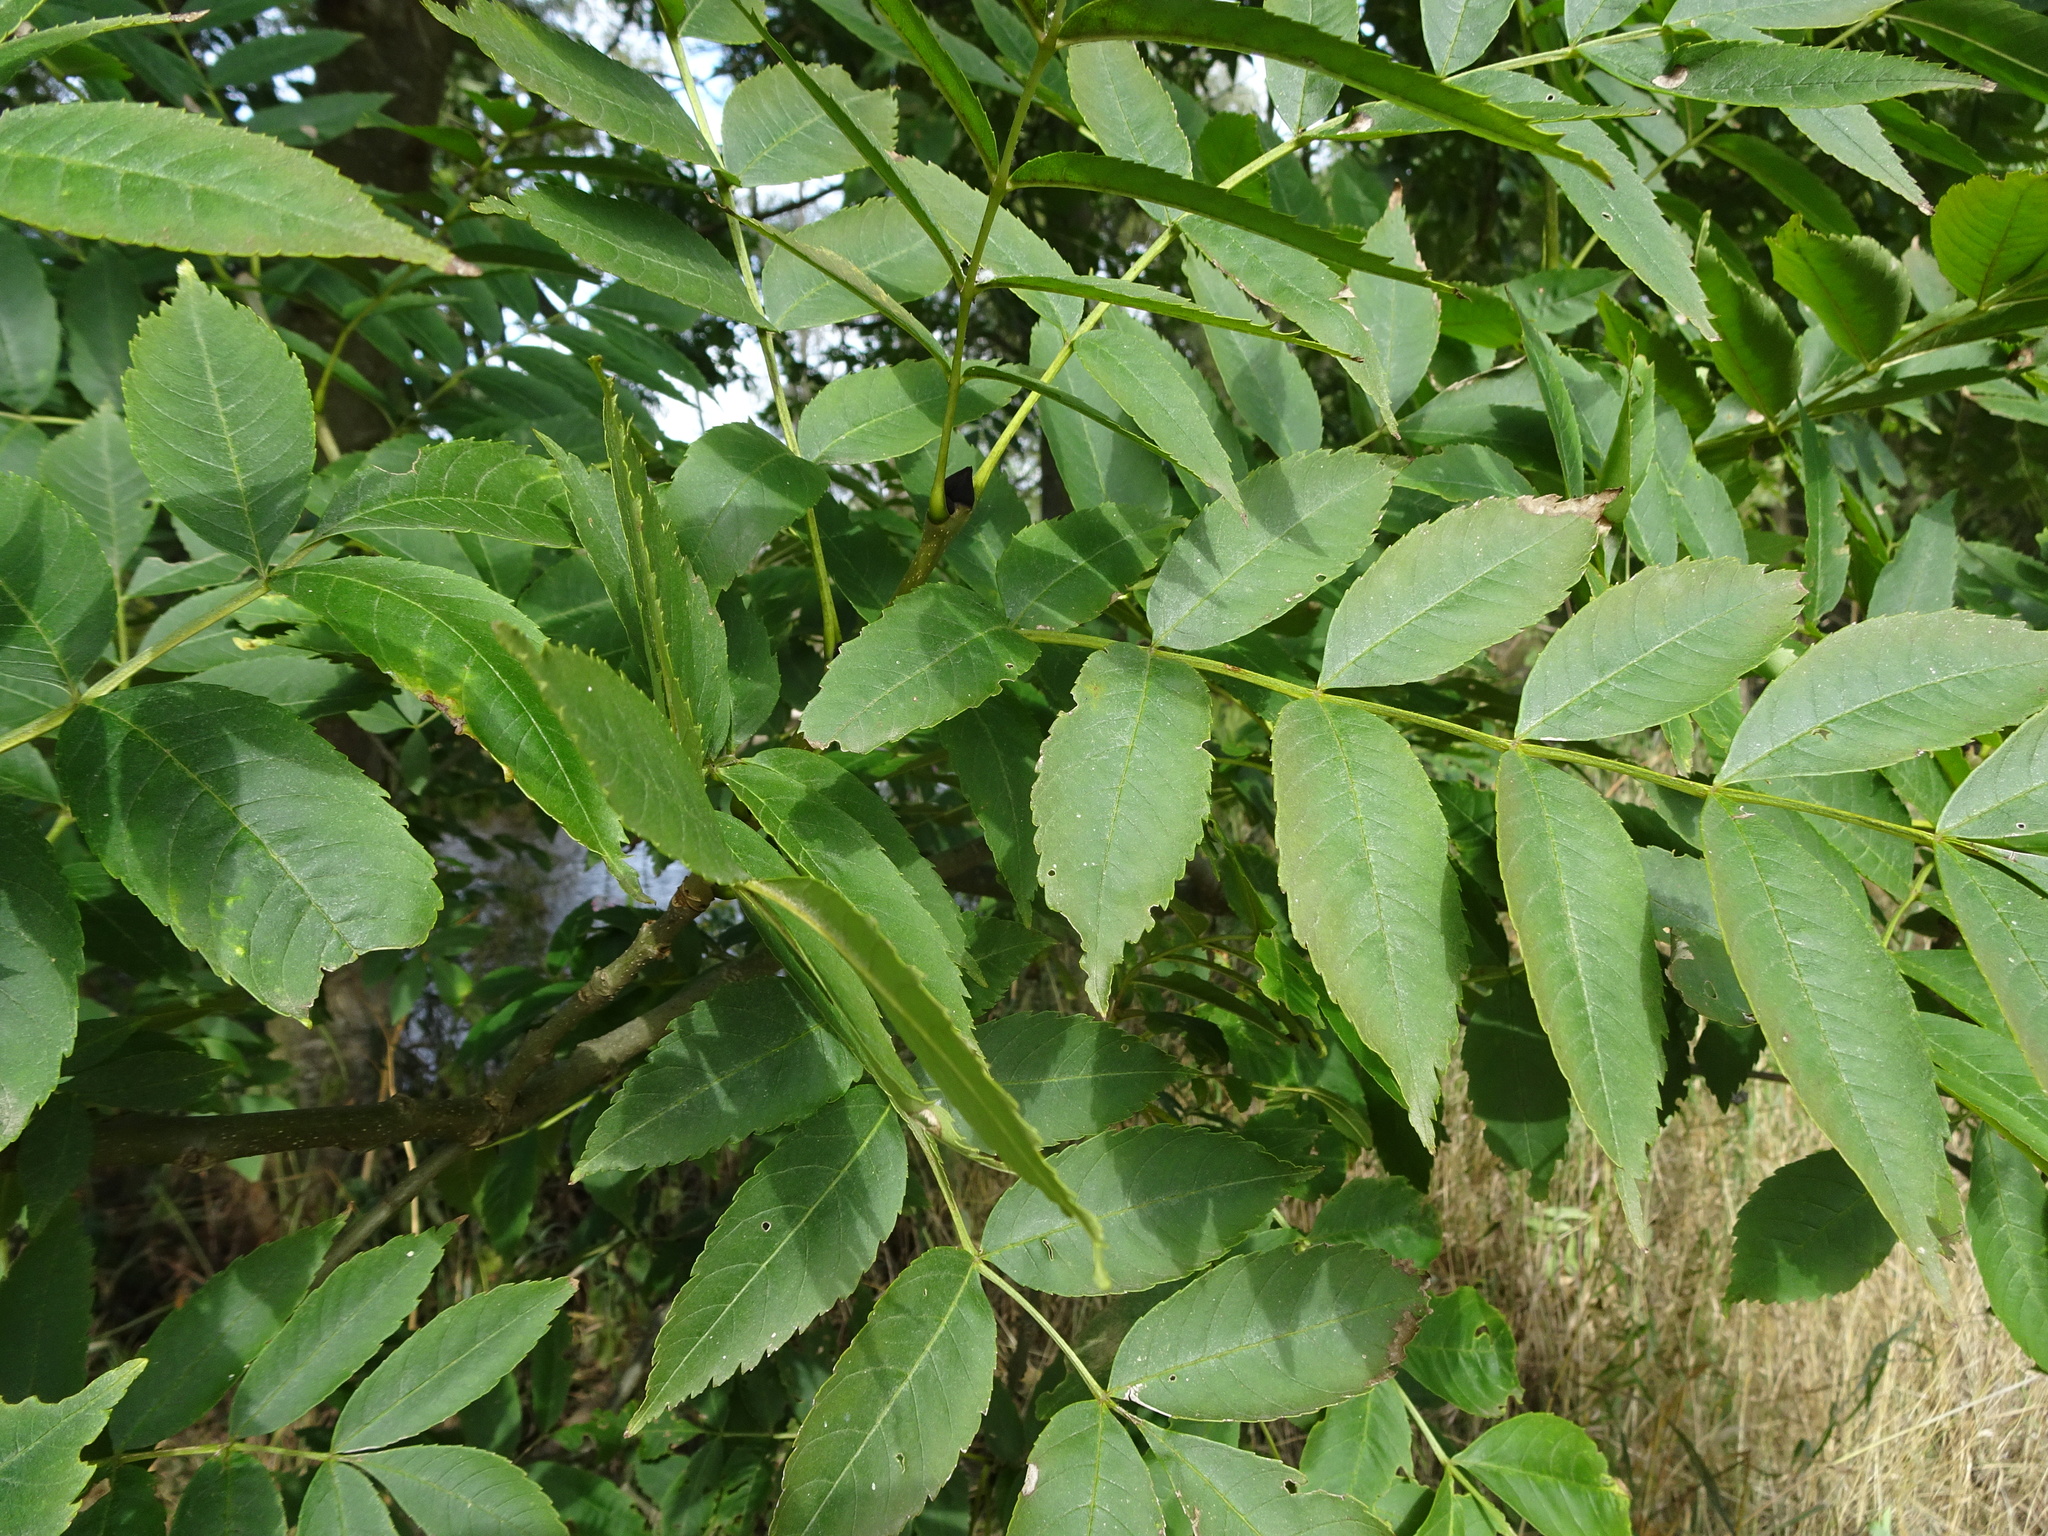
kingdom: Plantae
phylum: Tracheophyta
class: Magnoliopsida
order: Lamiales
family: Oleaceae
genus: Fraxinus
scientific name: Fraxinus excelsior
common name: European ash
